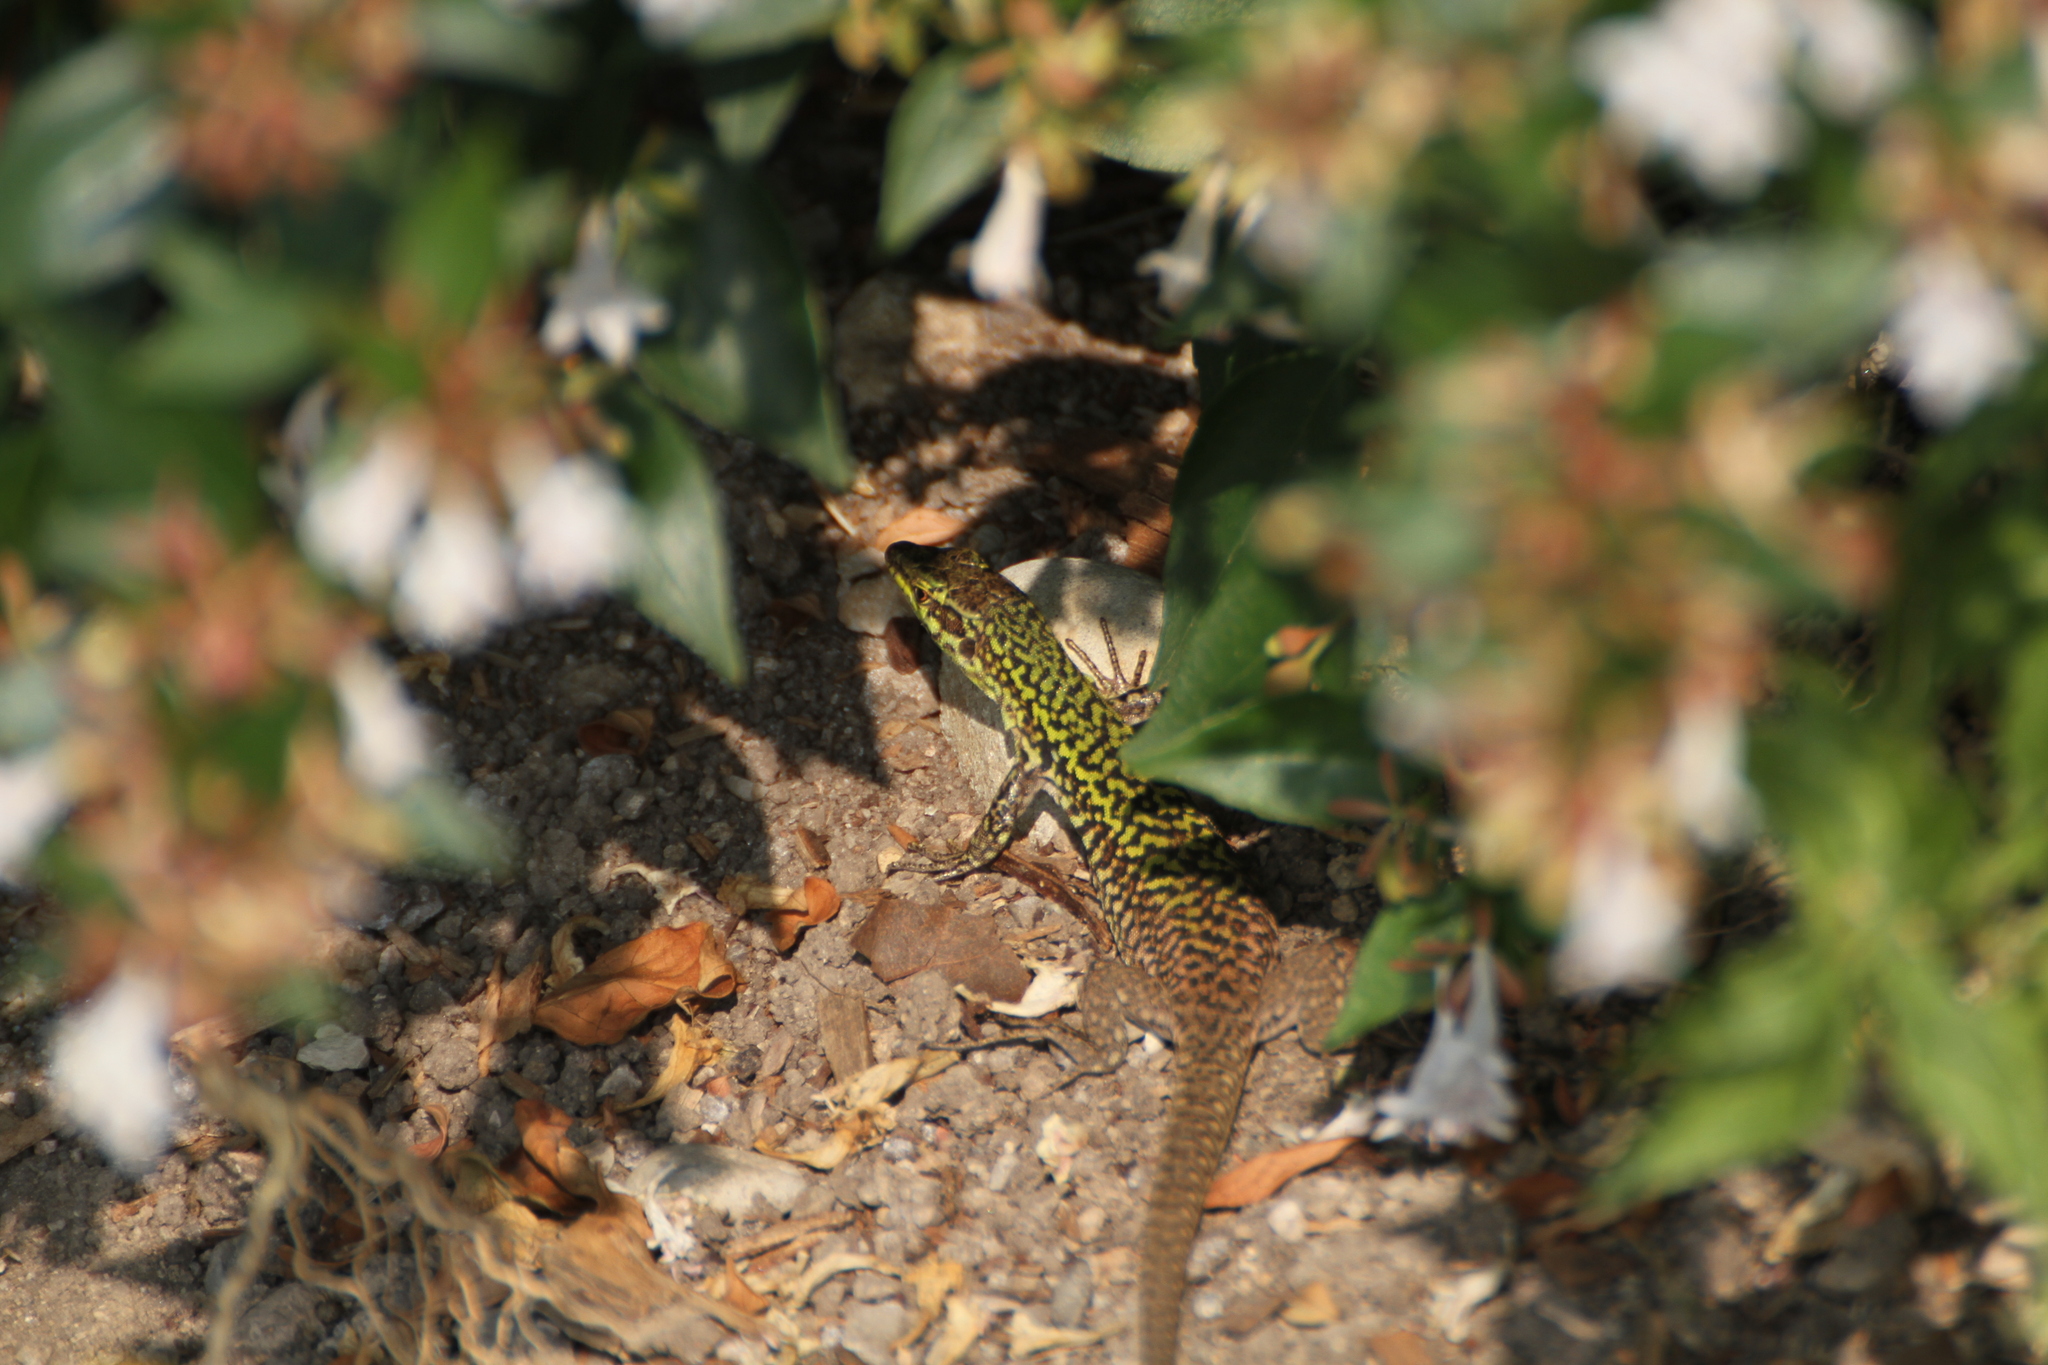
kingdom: Animalia
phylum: Chordata
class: Squamata
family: Lacertidae
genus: Podarcis
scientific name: Podarcis siculus
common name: Italian wall lizard
